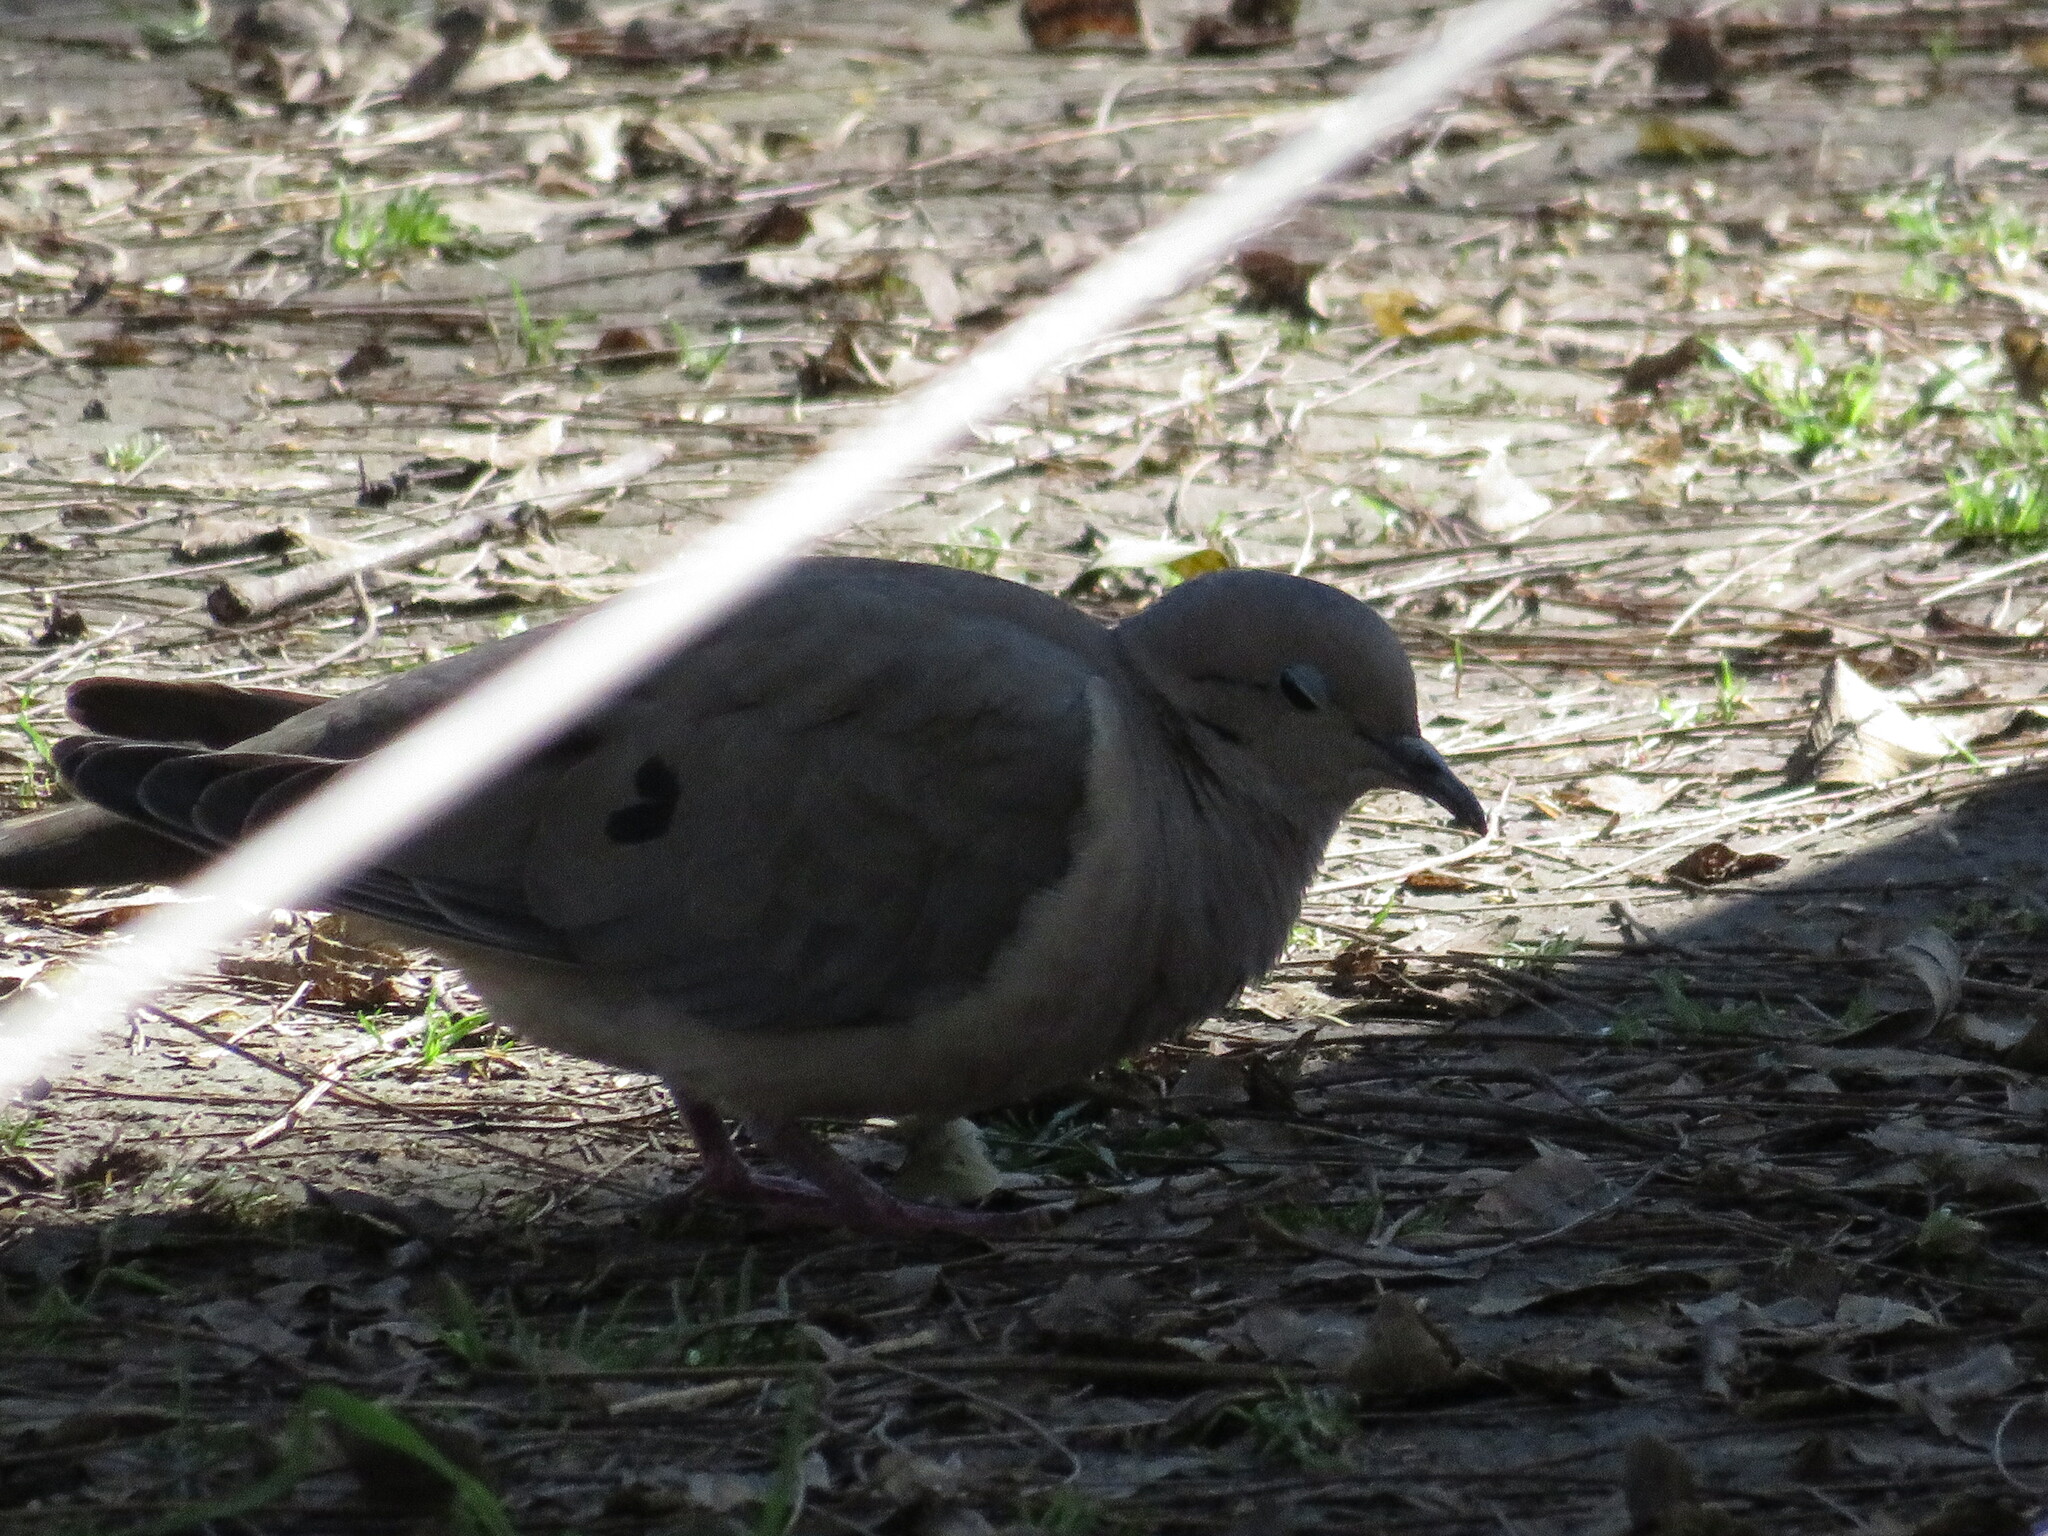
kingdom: Animalia
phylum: Chordata
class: Aves
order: Columbiformes
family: Columbidae
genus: Zenaida
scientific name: Zenaida auriculata
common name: Eared dove
